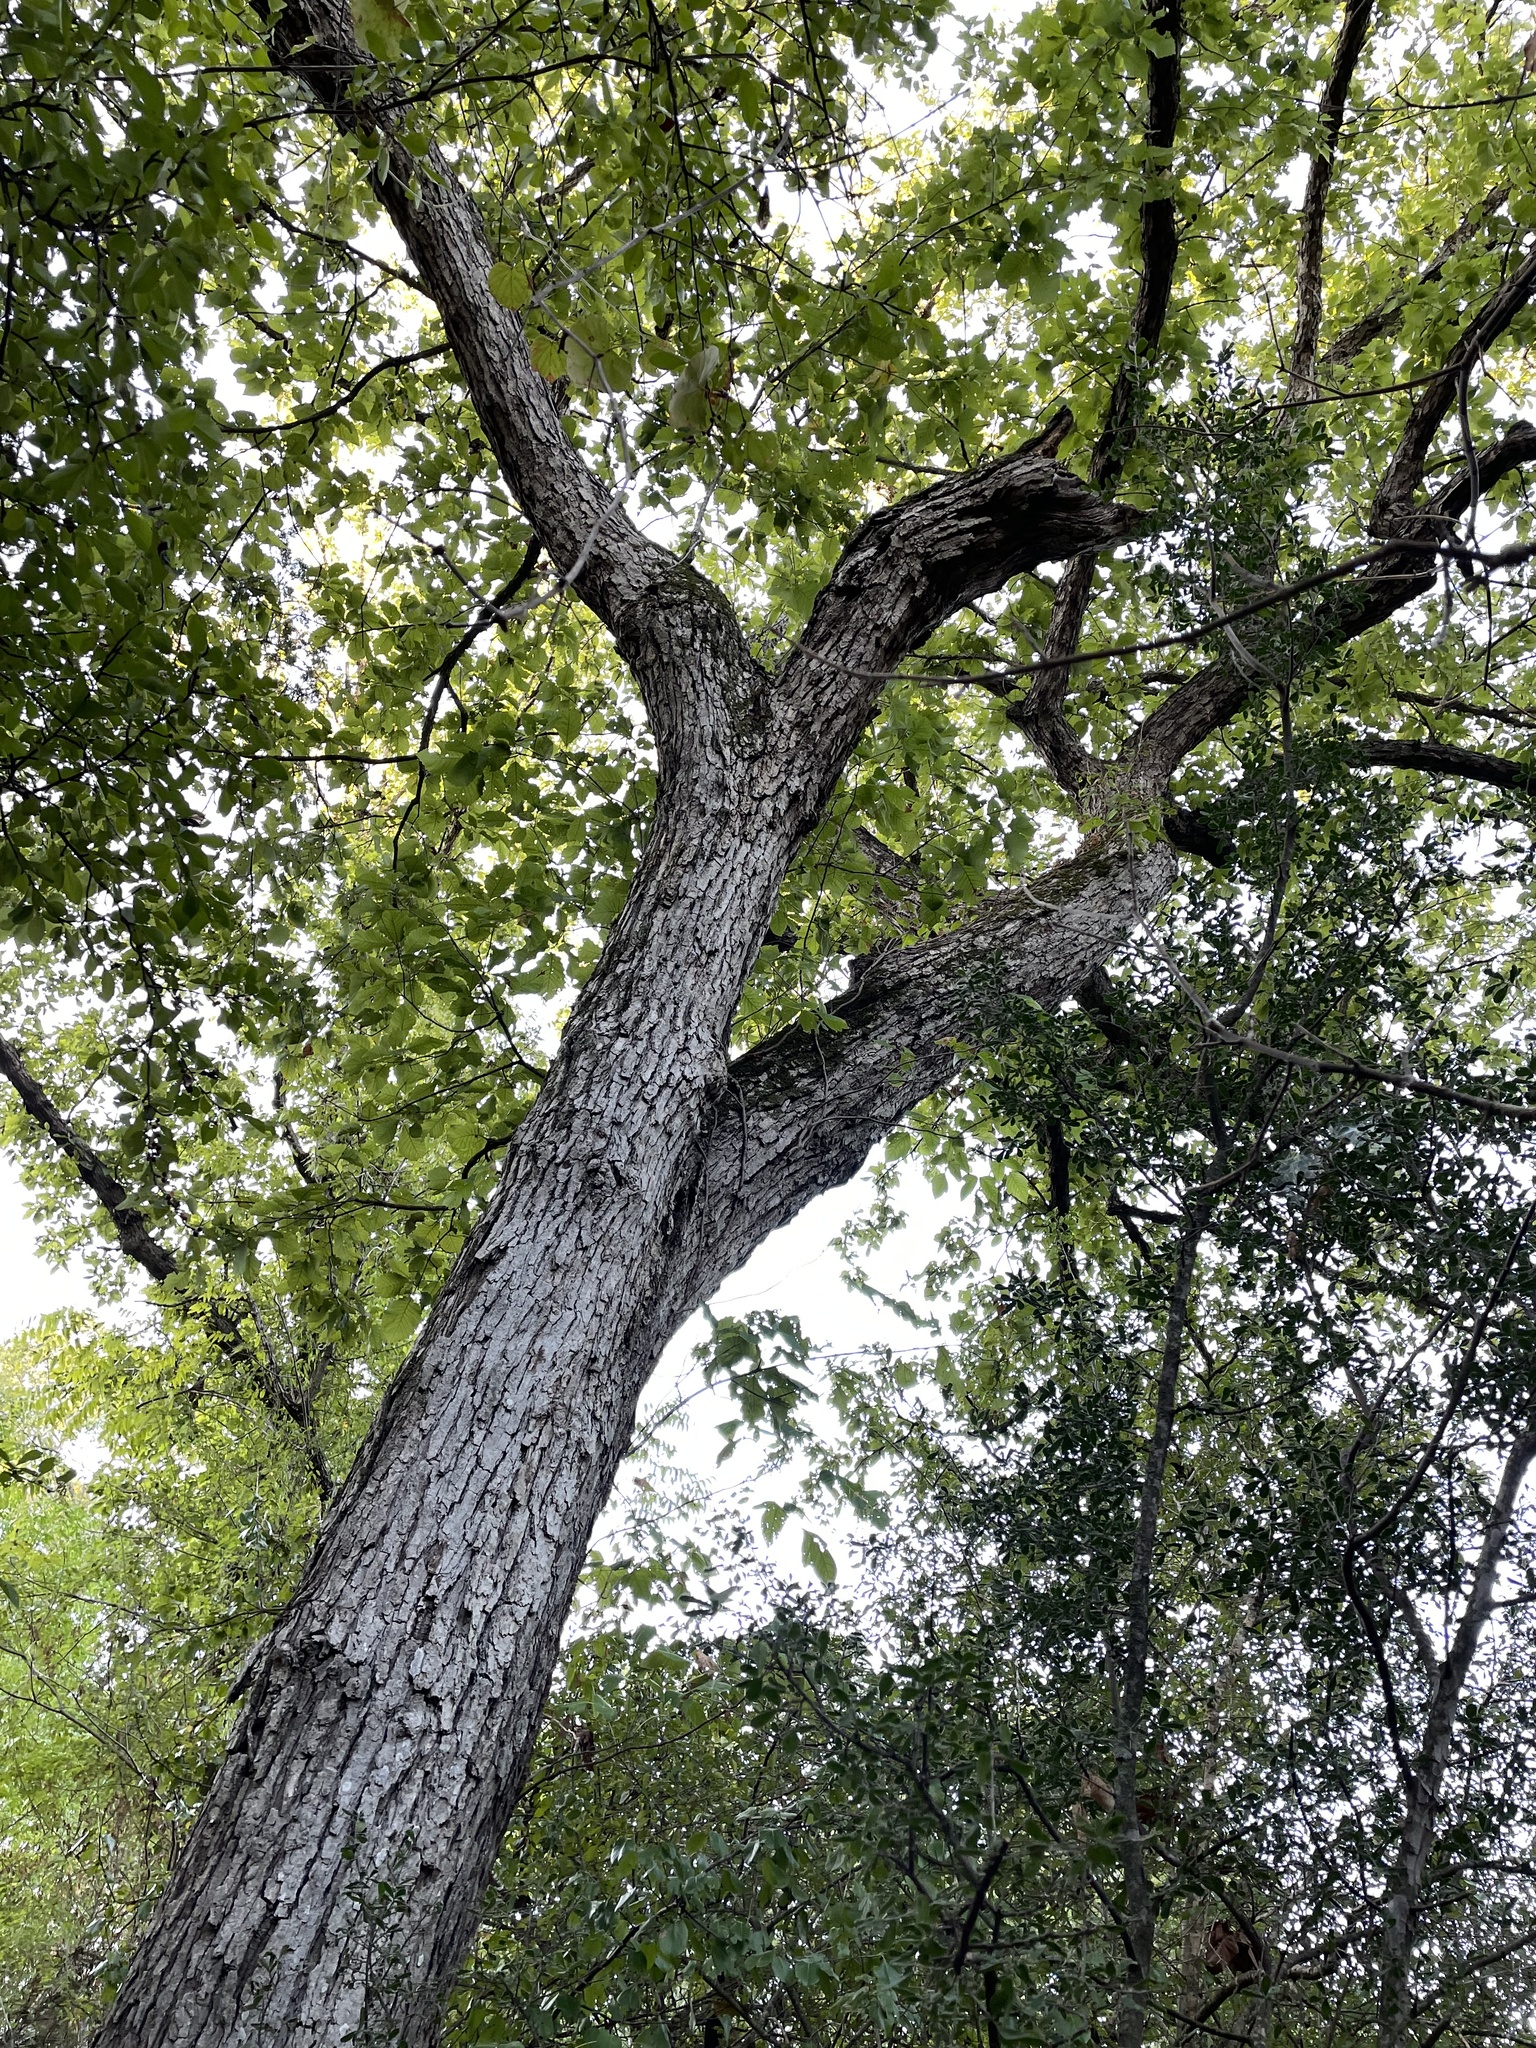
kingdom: Plantae
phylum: Tracheophyta
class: Magnoliopsida
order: Fagales
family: Fagaceae
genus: Quercus
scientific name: Quercus muehlenbergii
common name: Chinkapin oak
